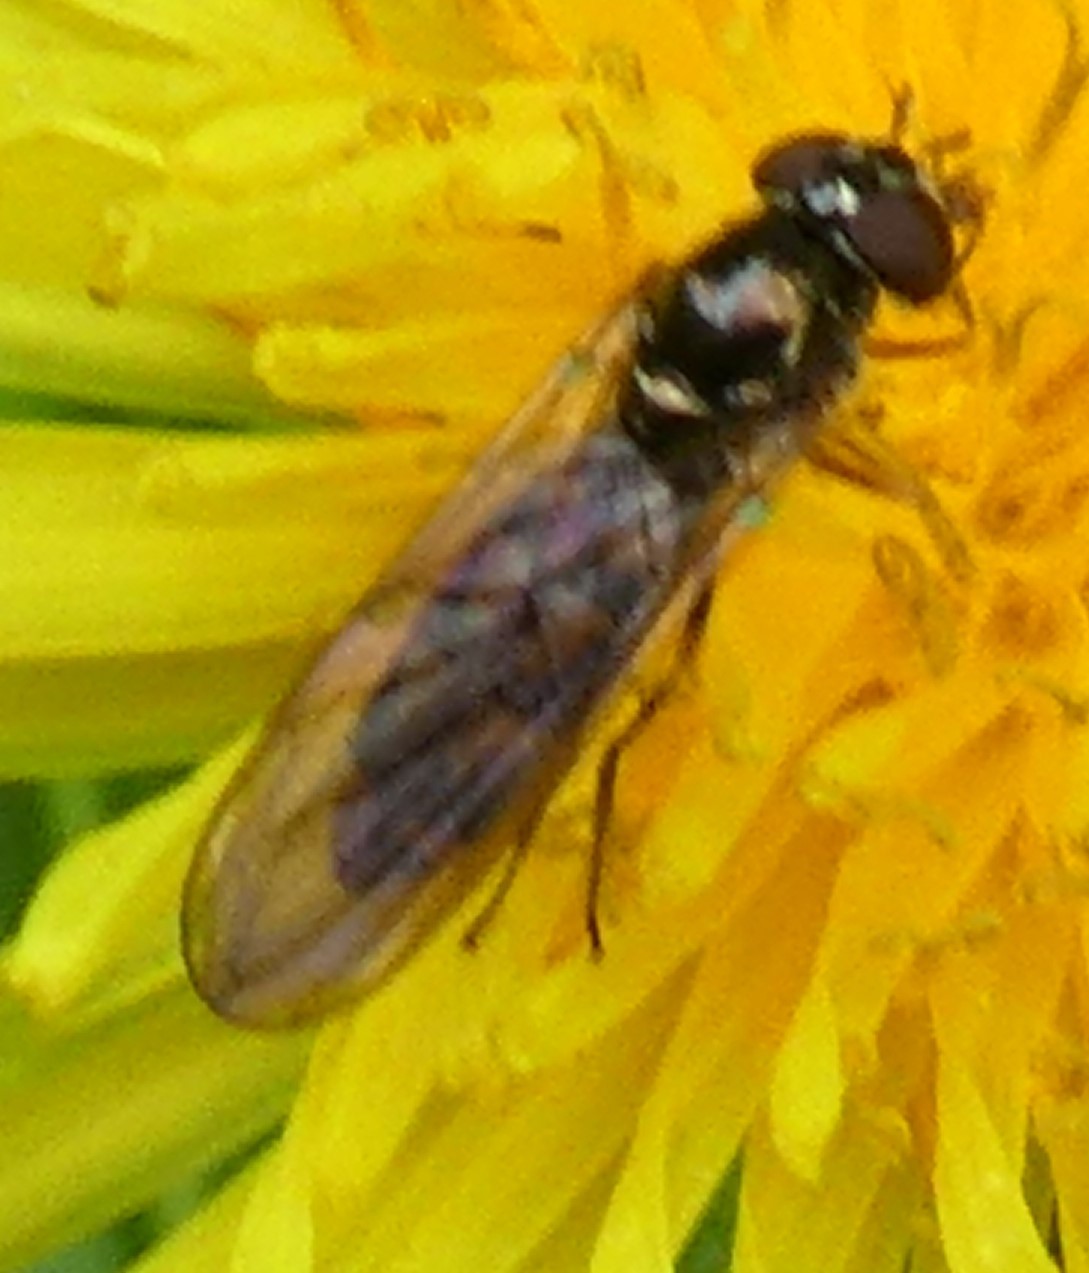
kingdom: Animalia
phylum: Arthropoda
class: Insecta
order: Diptera
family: Syrphidae
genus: Melanostoma
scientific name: Melanostoma scalare
